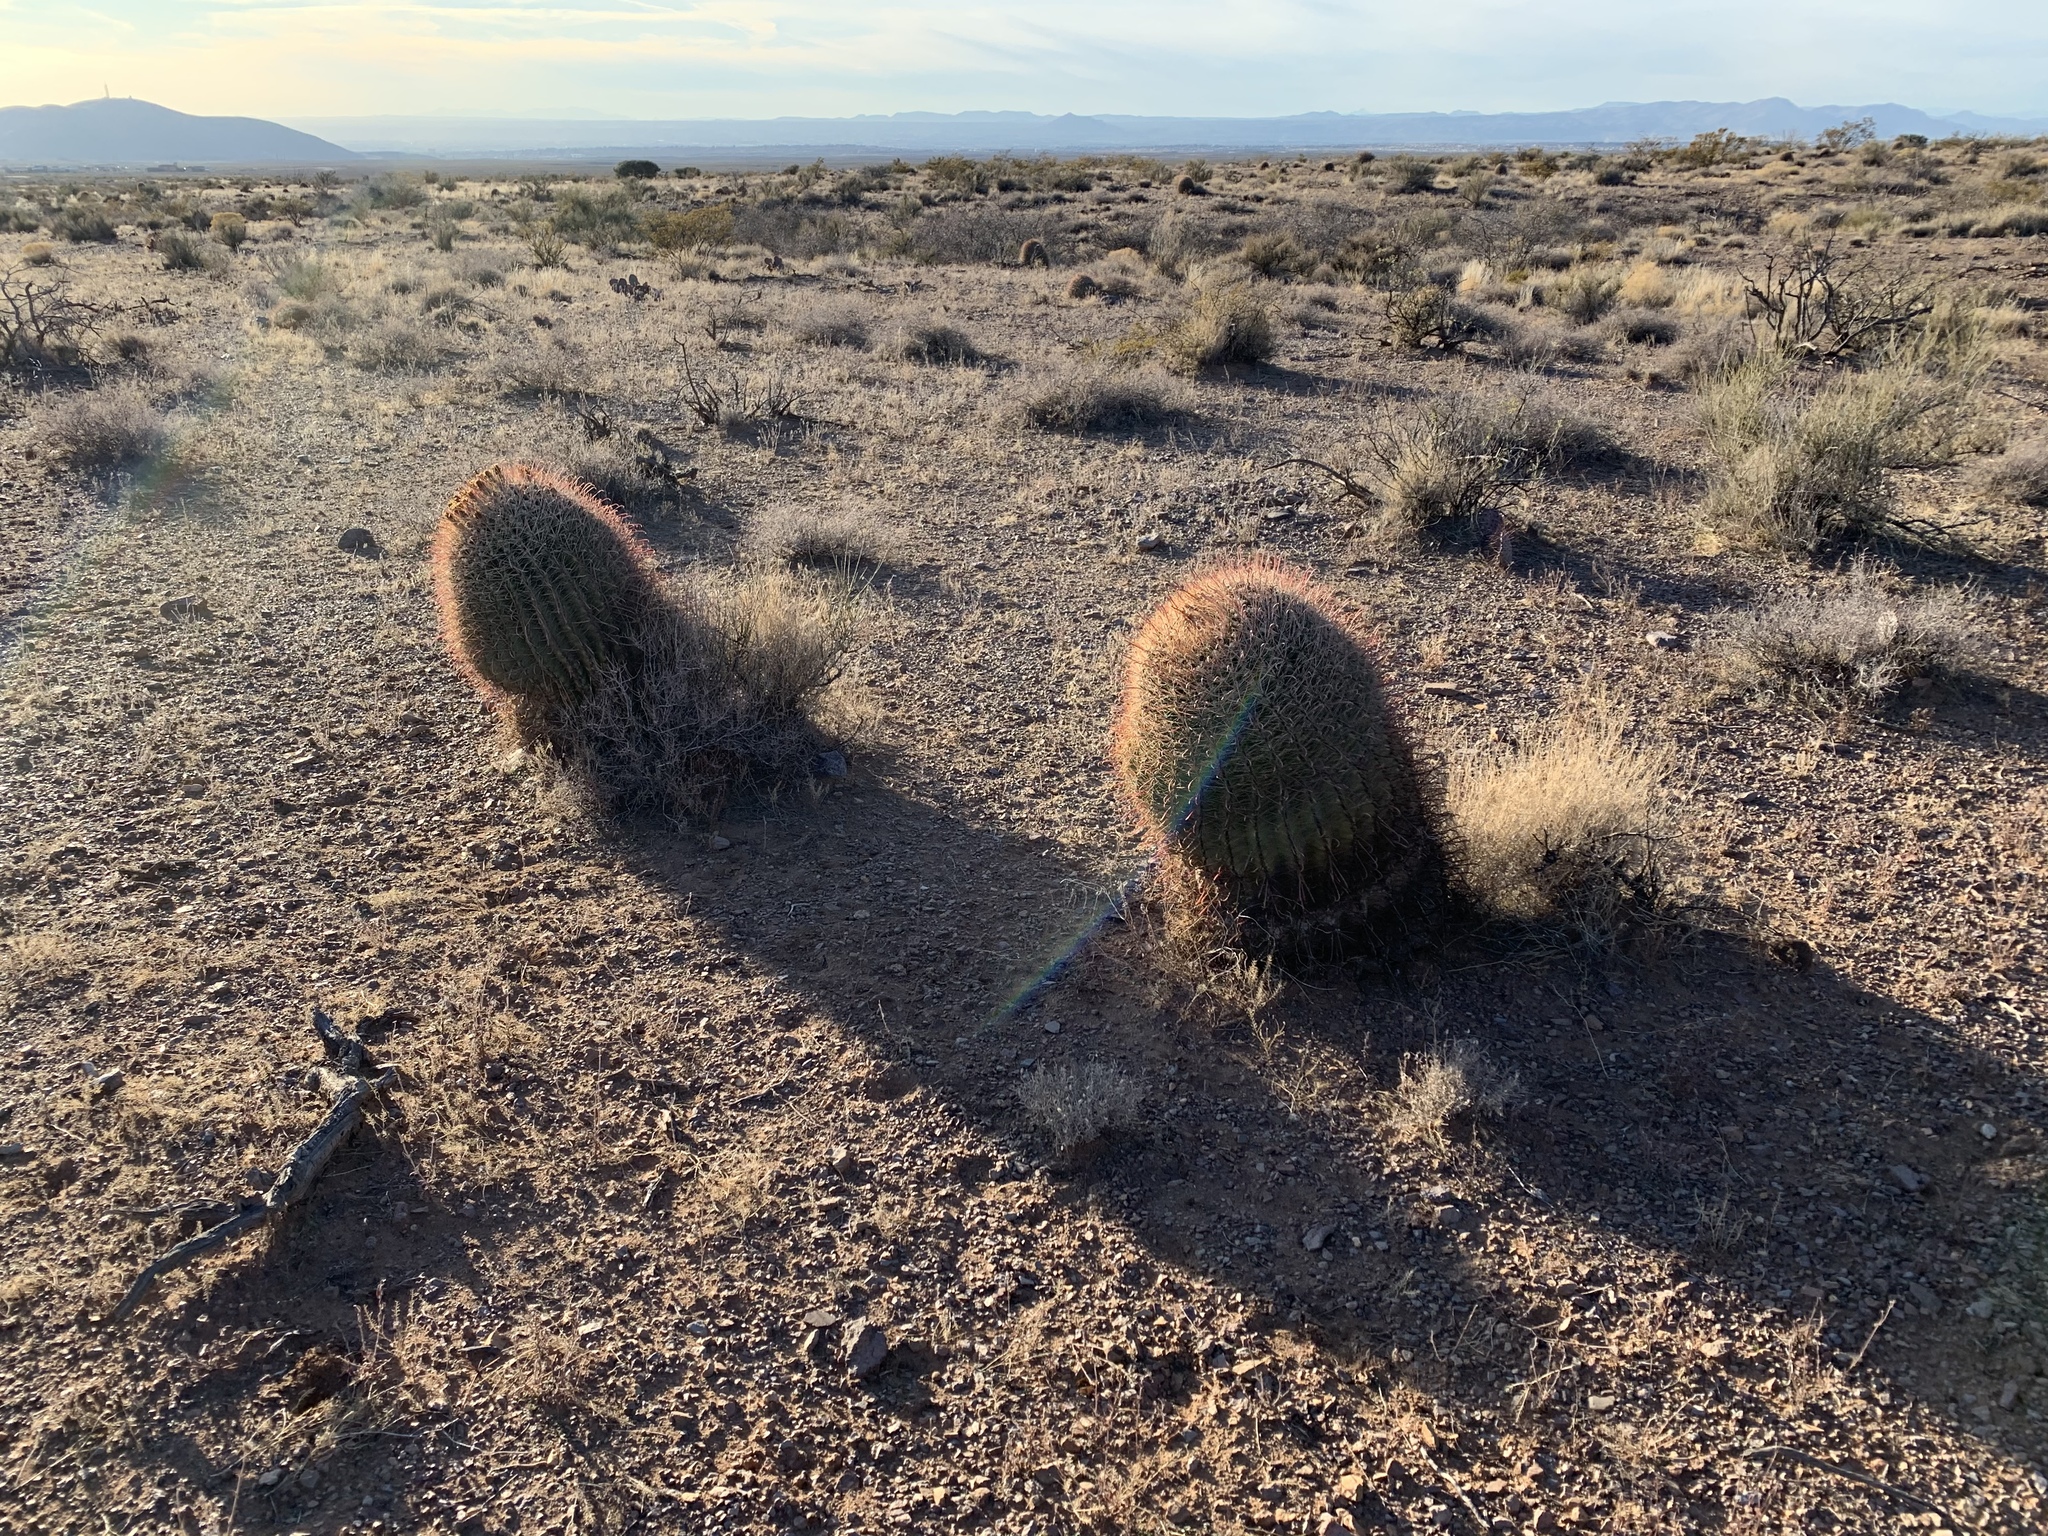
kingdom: Plantae
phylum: Tracheophyta
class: Magnoliopsida
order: Caryophyllales
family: Cactaceae
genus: Ferocactus
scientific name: Ferocactus wislizeni
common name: Candy barrel cactus
